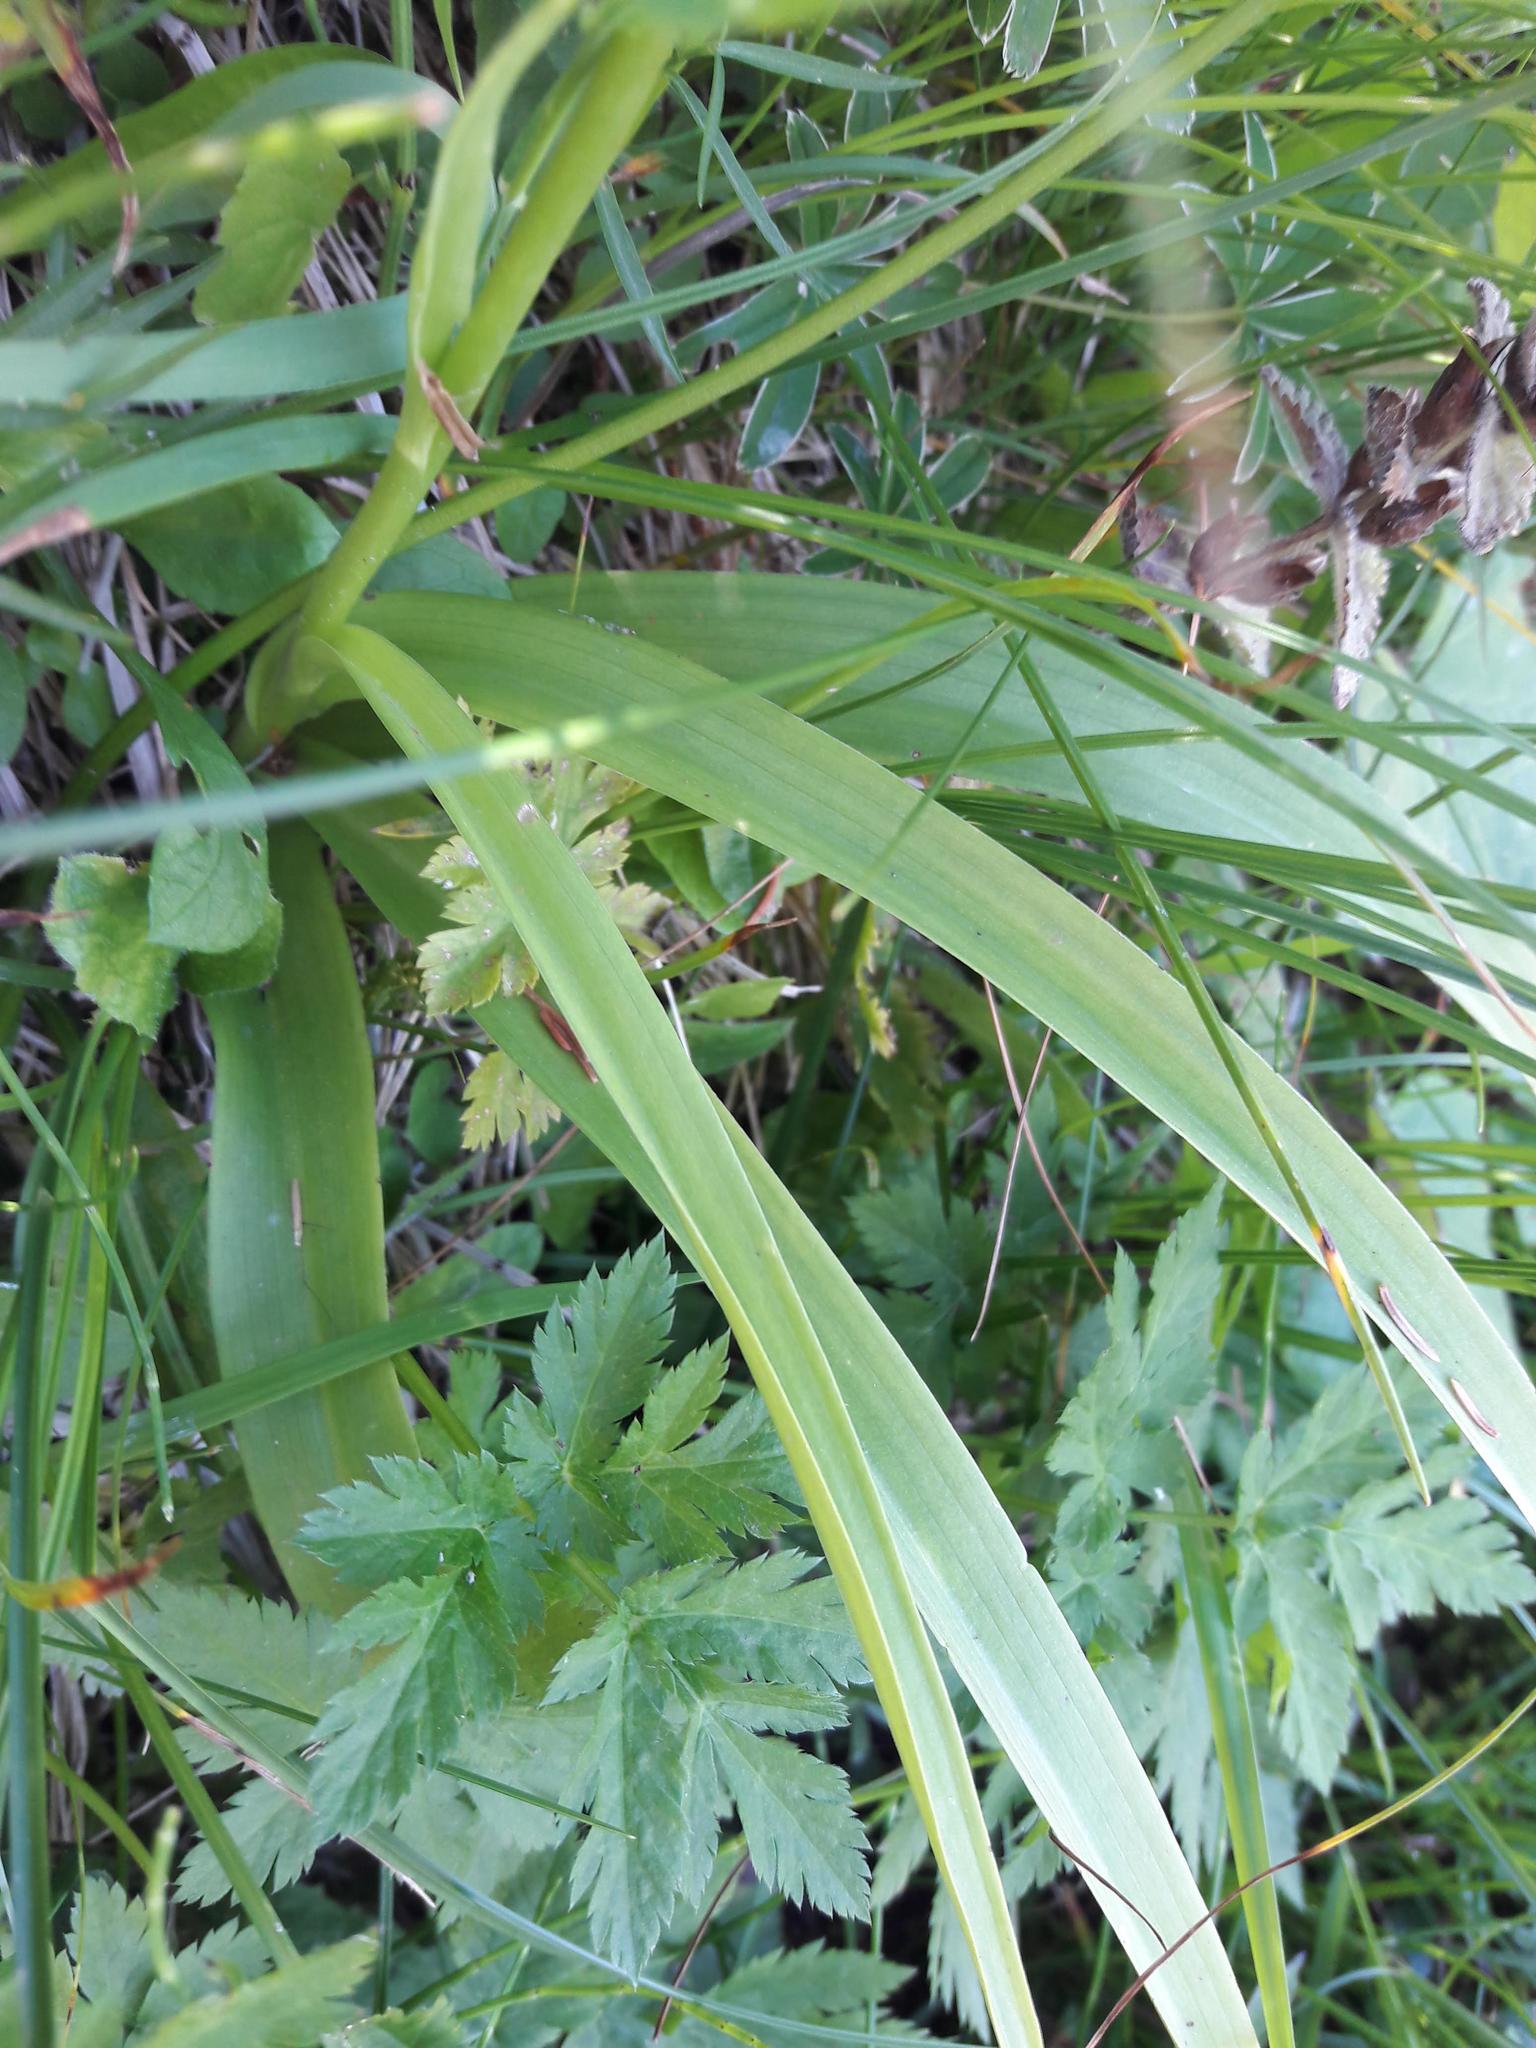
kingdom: Plantae
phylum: Tracheophyta
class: Liliopsida
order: Asparagales
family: Orchidaceae
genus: Gymnadenia
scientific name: Gymnadenia conopsea
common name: Fragrant orchid
